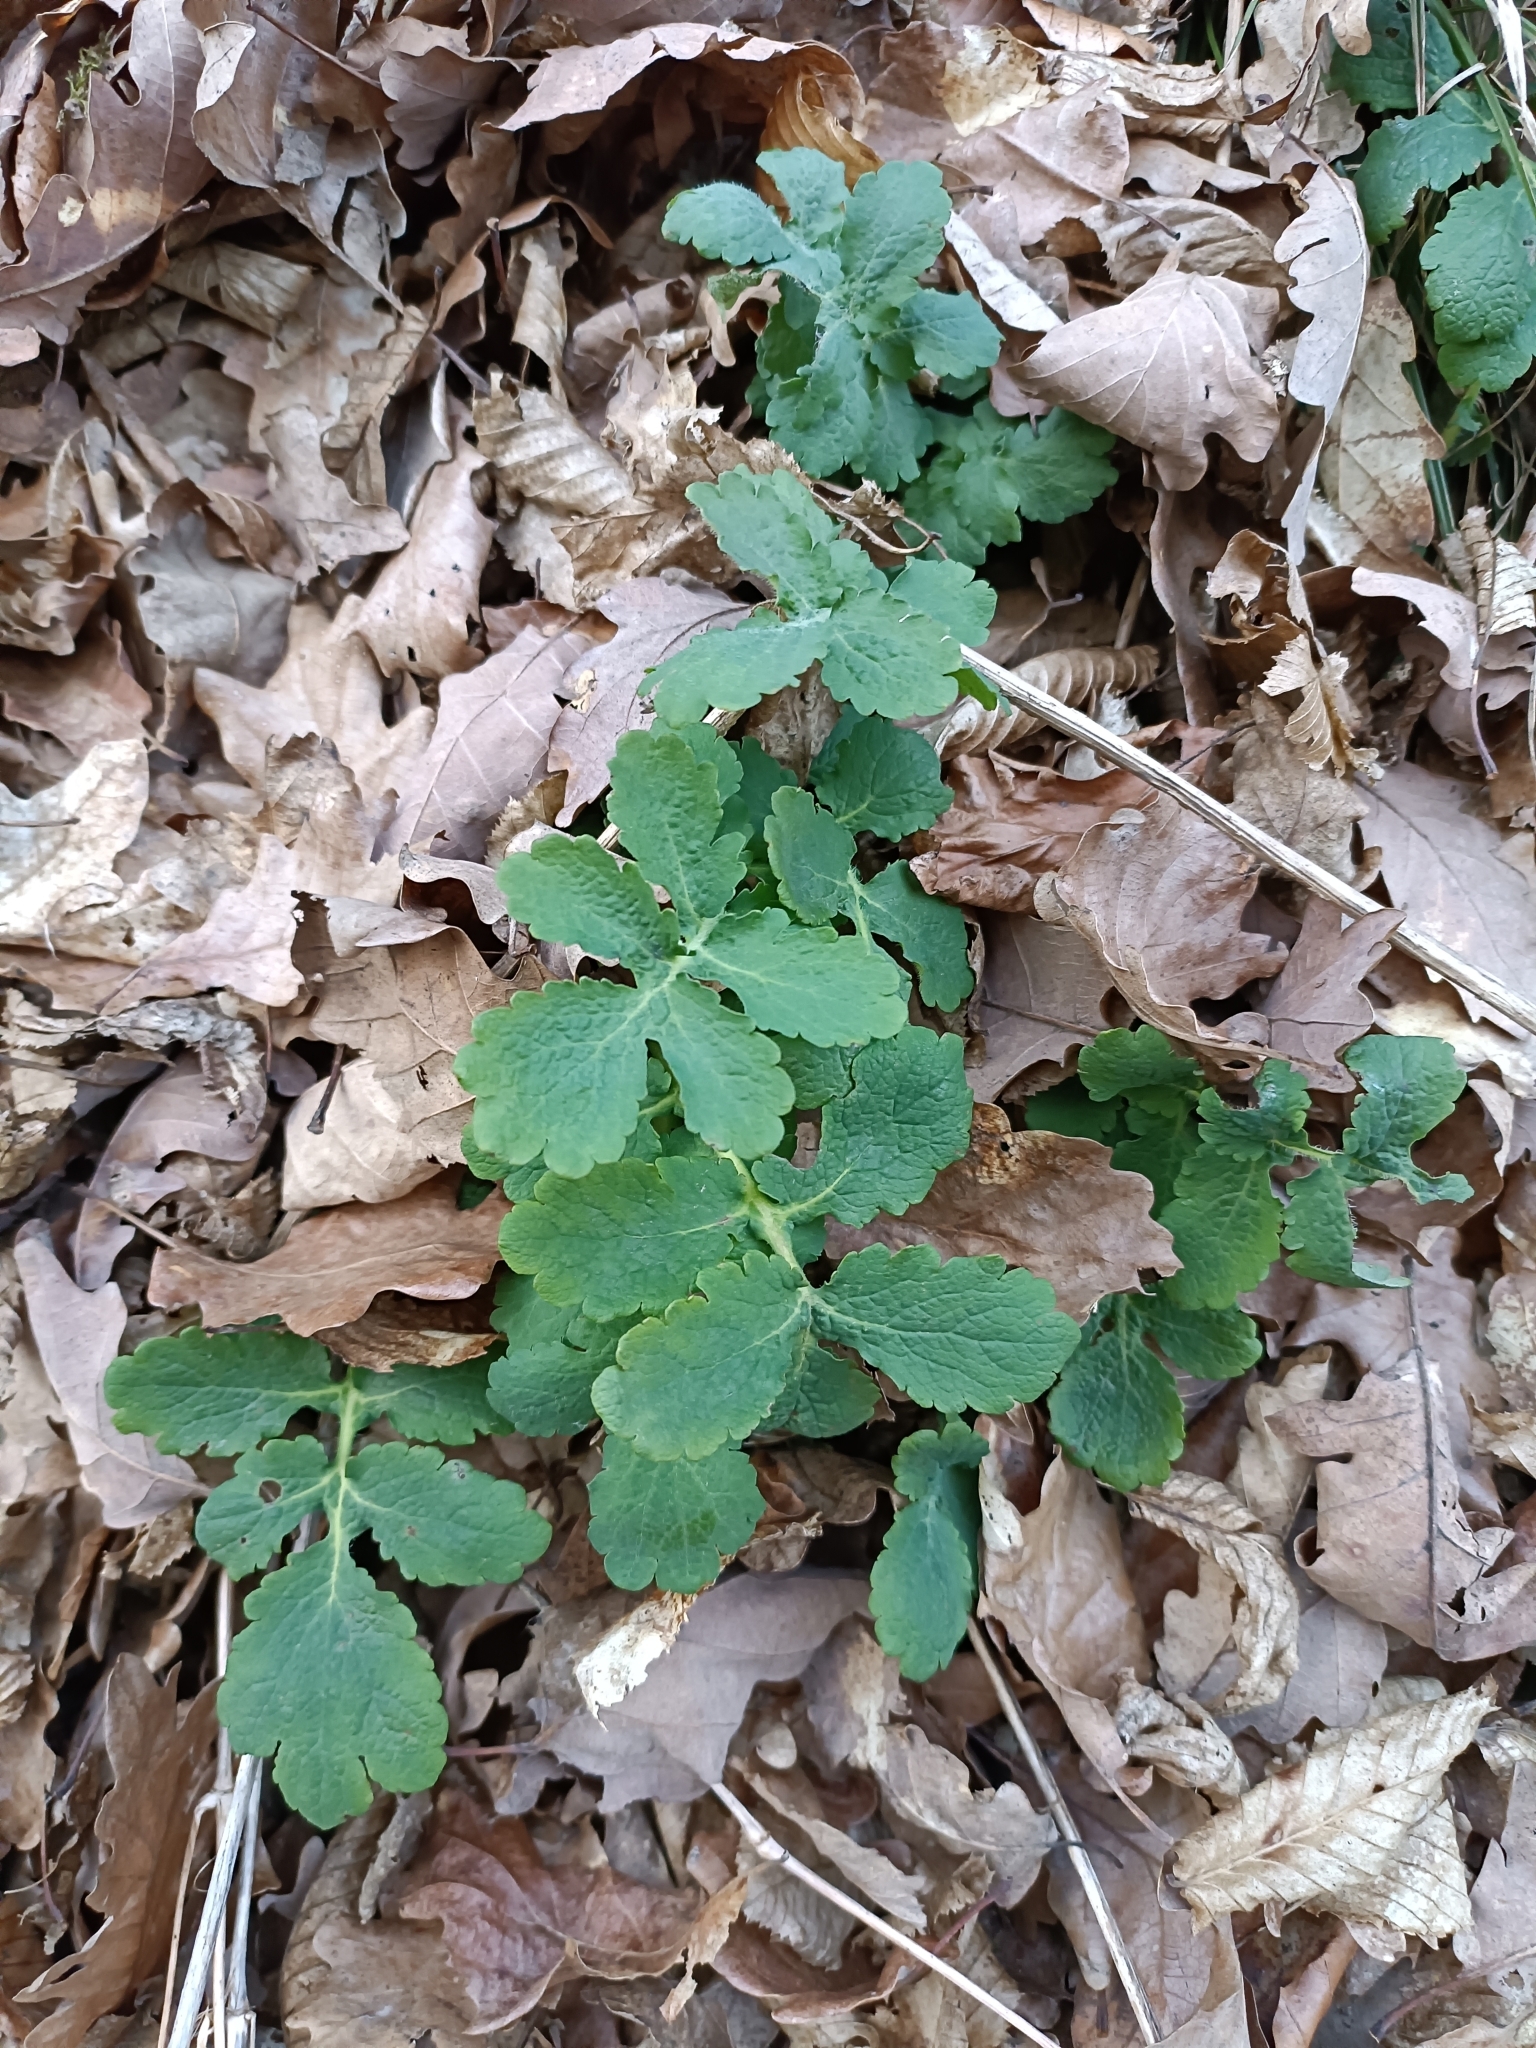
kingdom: Plantae
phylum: Tracheophyta
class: Magnoliopsida
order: Ranunculales
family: Papaveraceae
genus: Chelidonium
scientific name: Chelidonium majus
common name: Greater celandine
